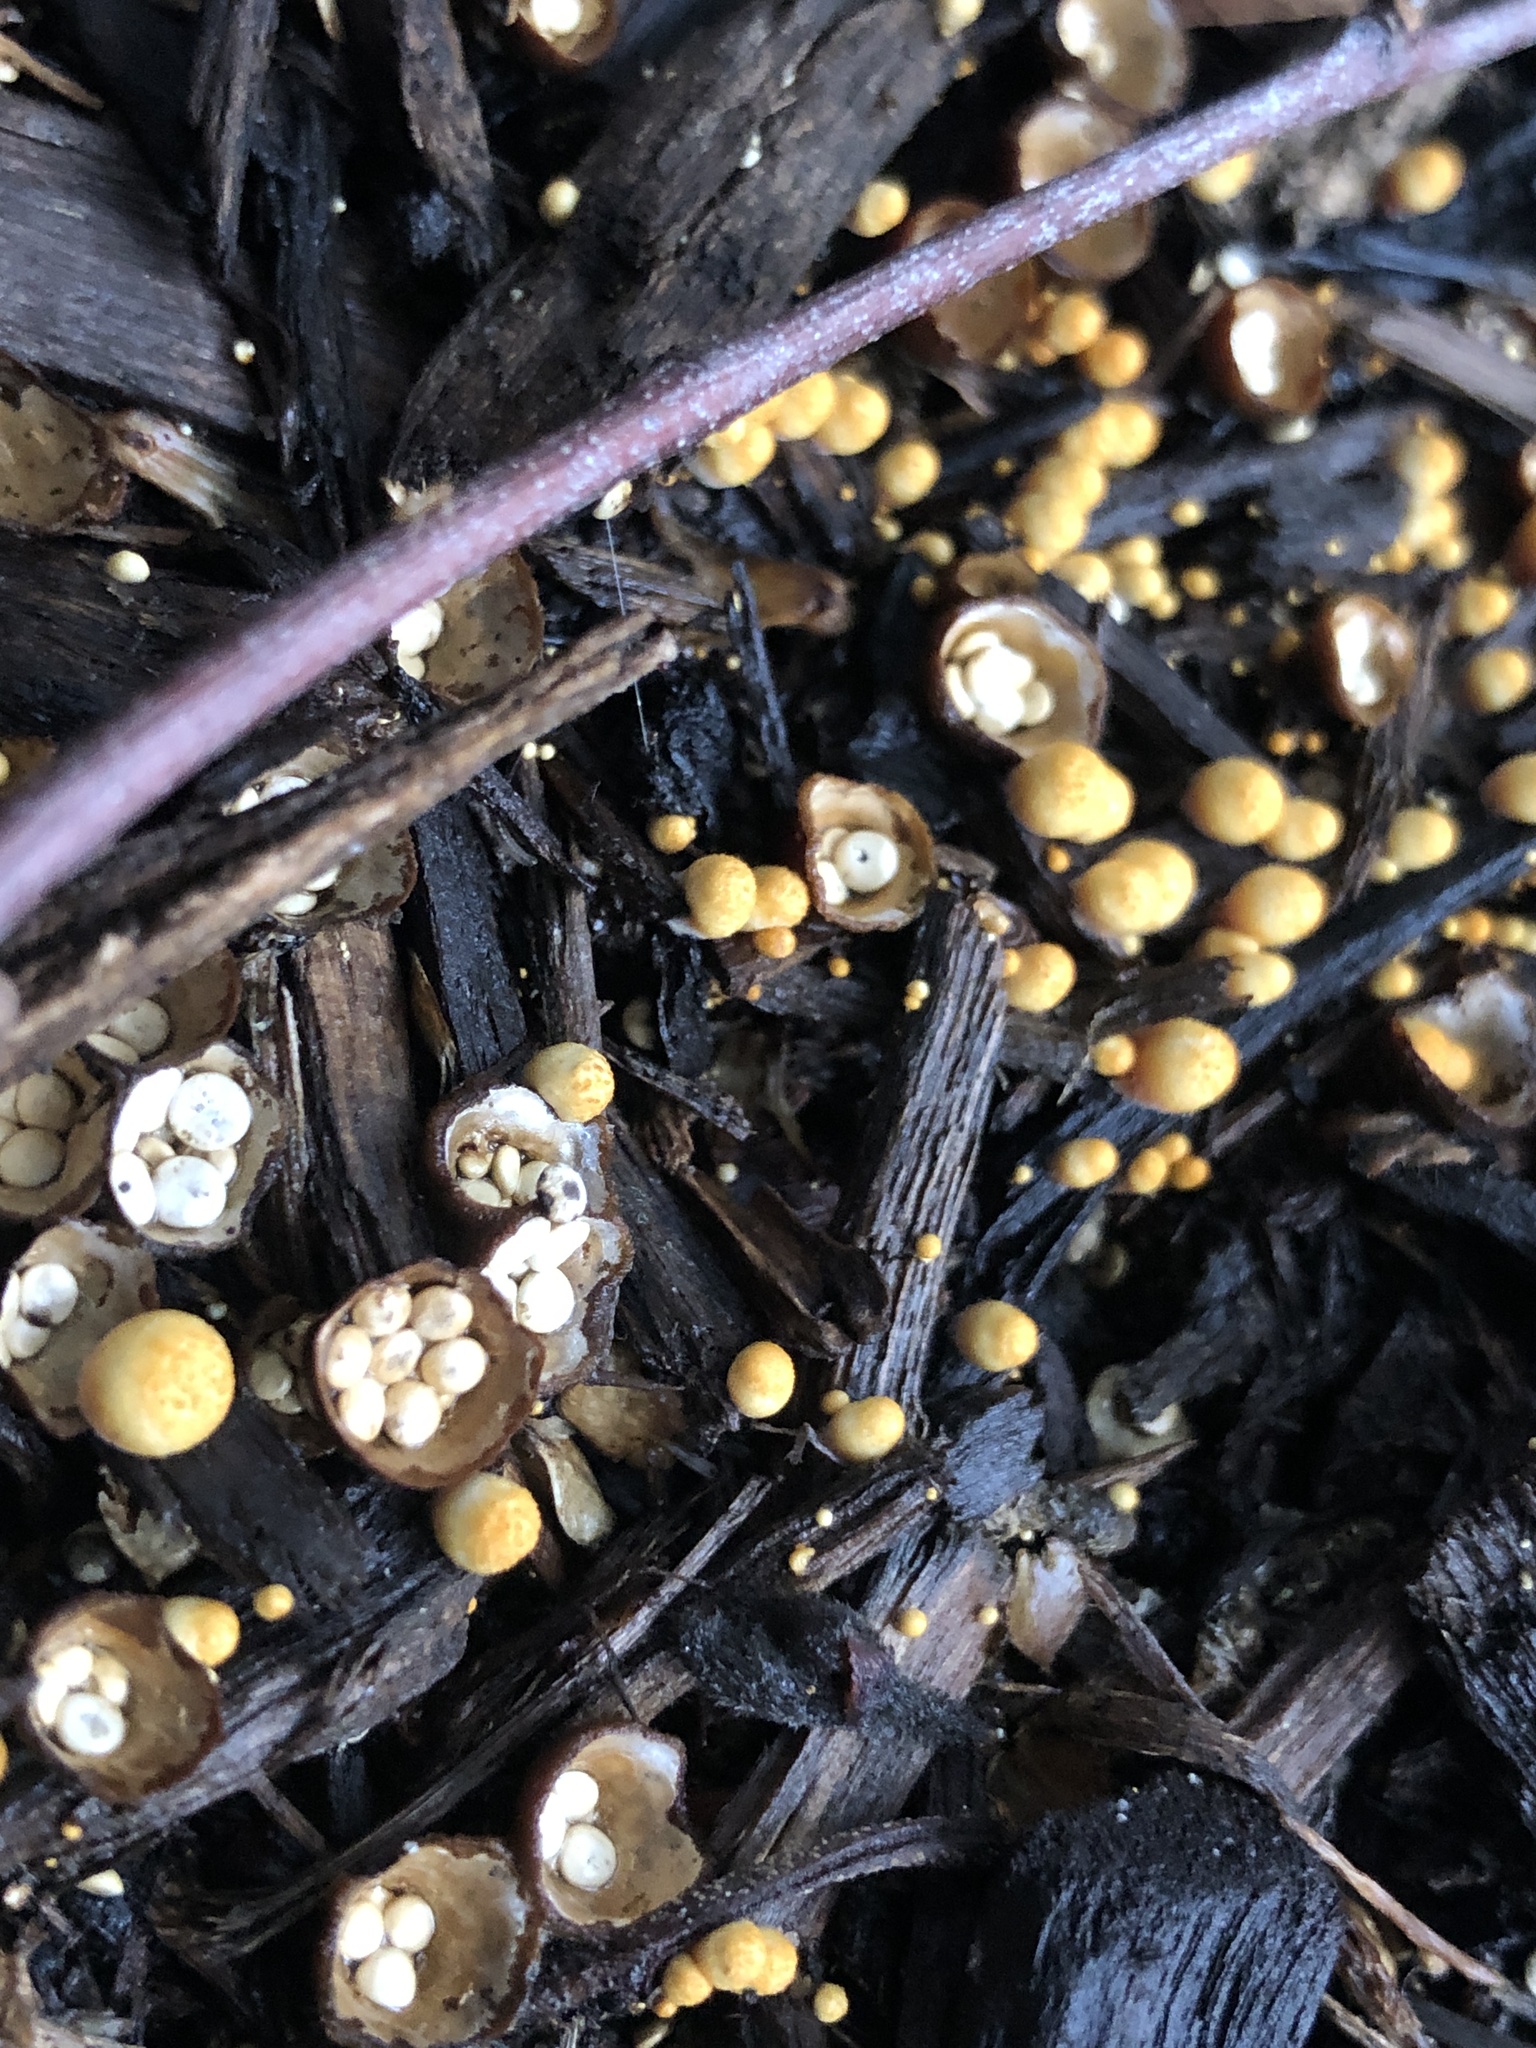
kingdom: Fungi
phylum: Basidiomycota
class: Agaricomycetes
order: Agaricales
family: Nidulariaceae
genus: Crucibulum
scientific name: Crucibulum laeve
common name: Common bird's nest
